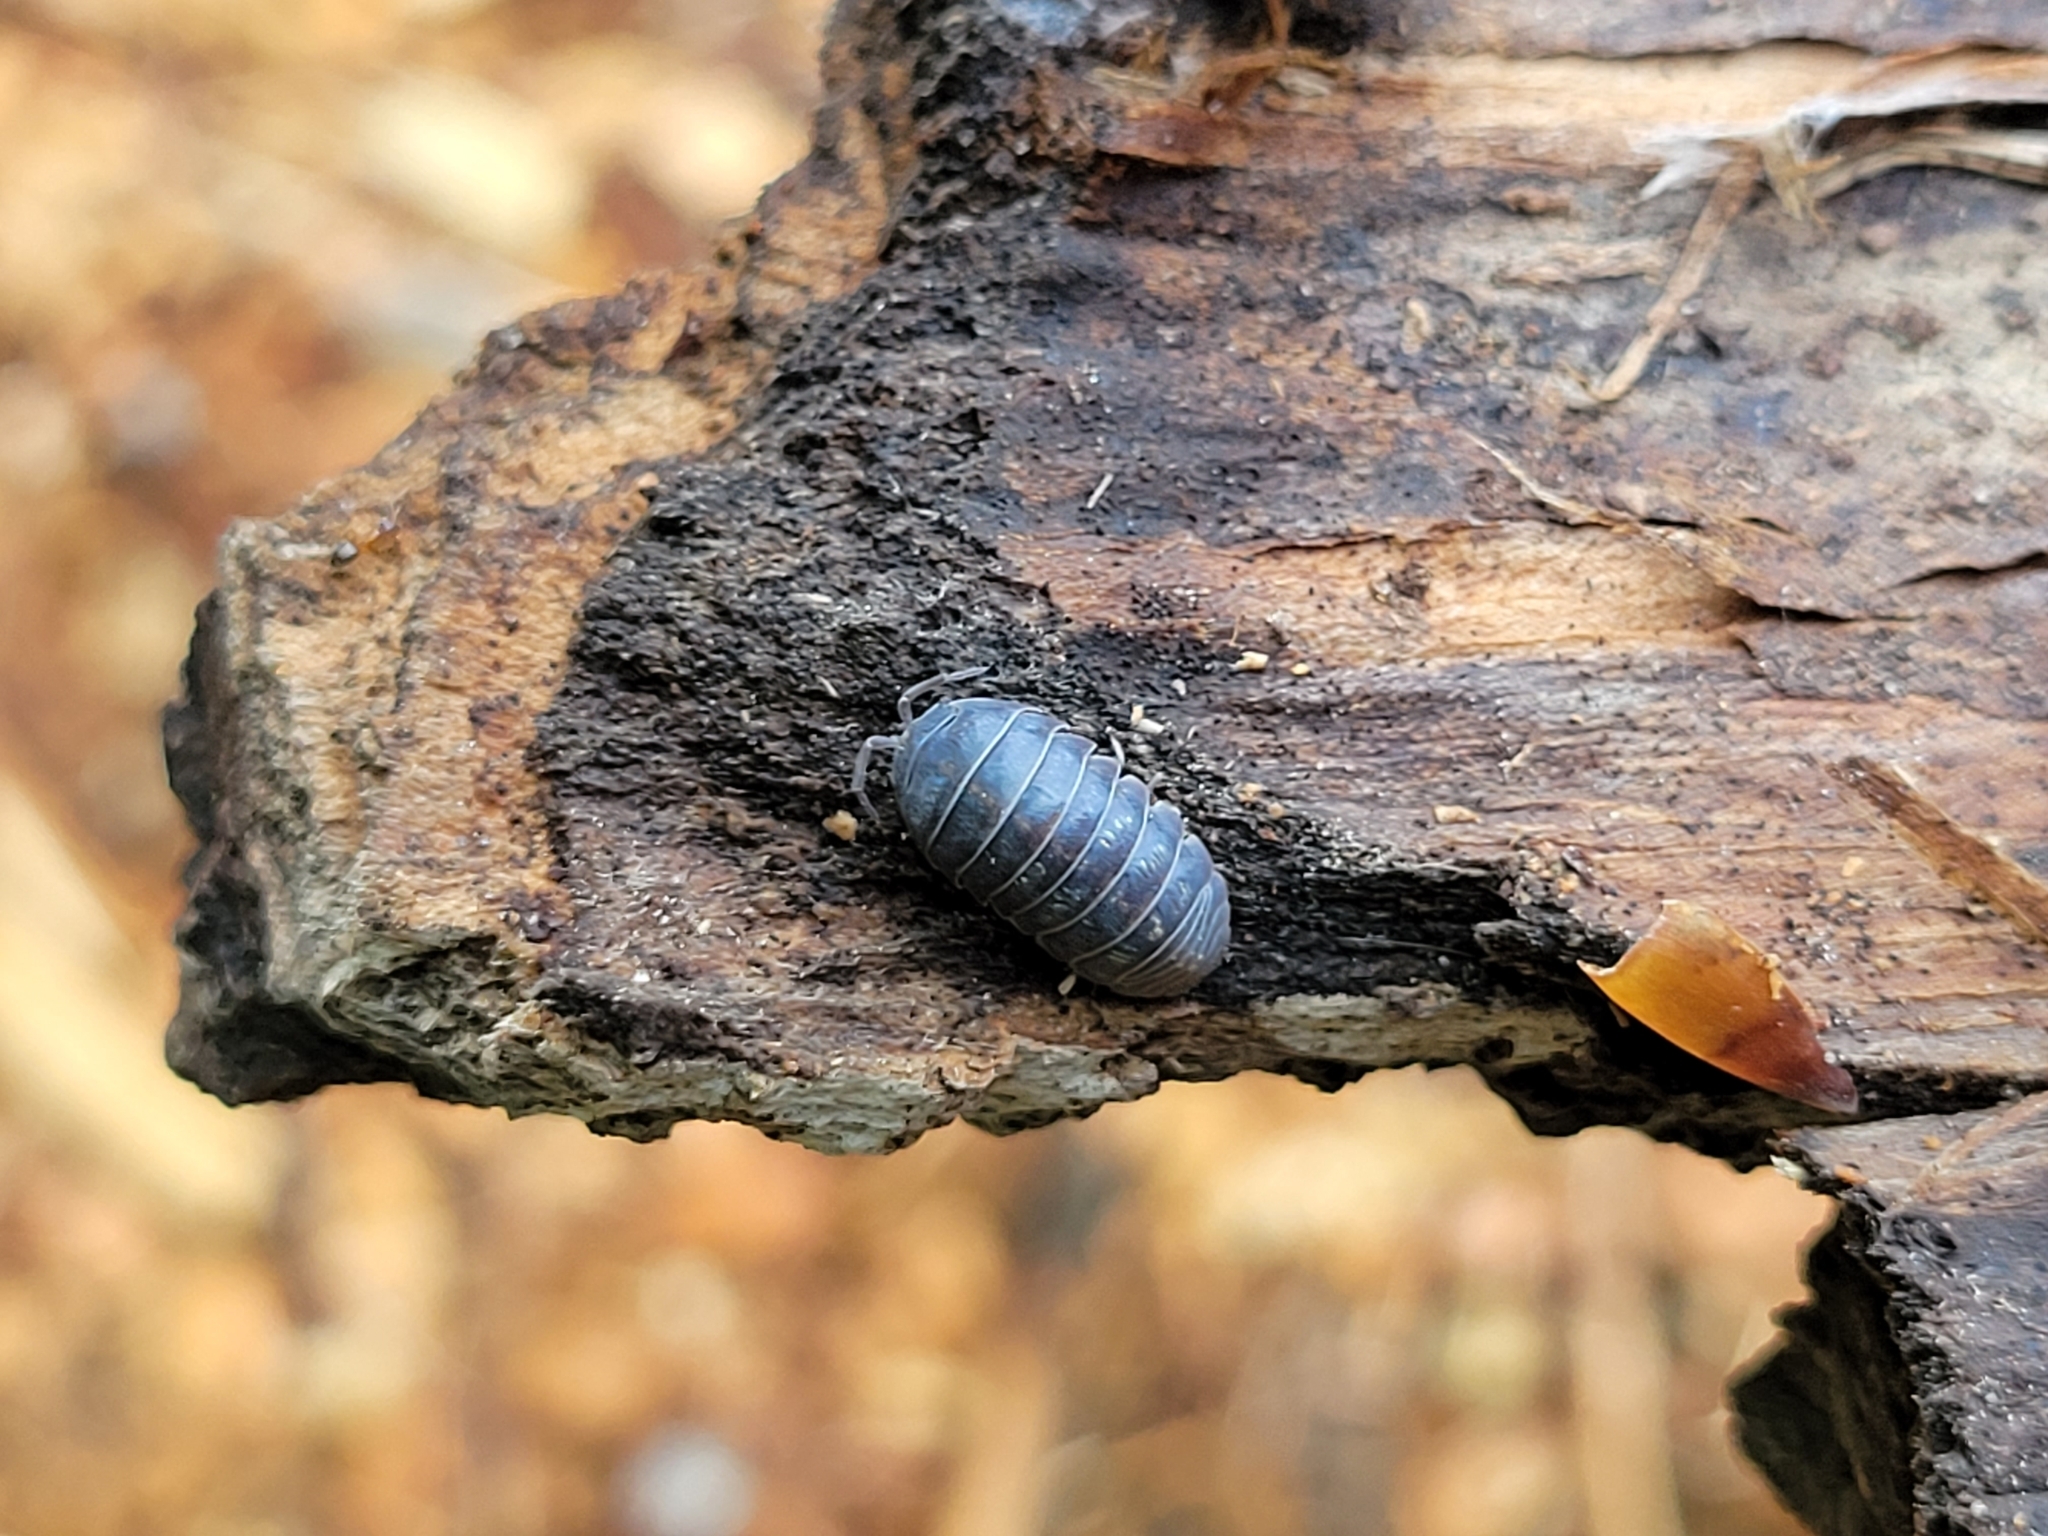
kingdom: Animalia
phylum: Arthropoda
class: Malacostraca
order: Isopoda
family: Armadillidiidae
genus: Armadillidium
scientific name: Armadillidium vulgare
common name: Common pill woodlouse
